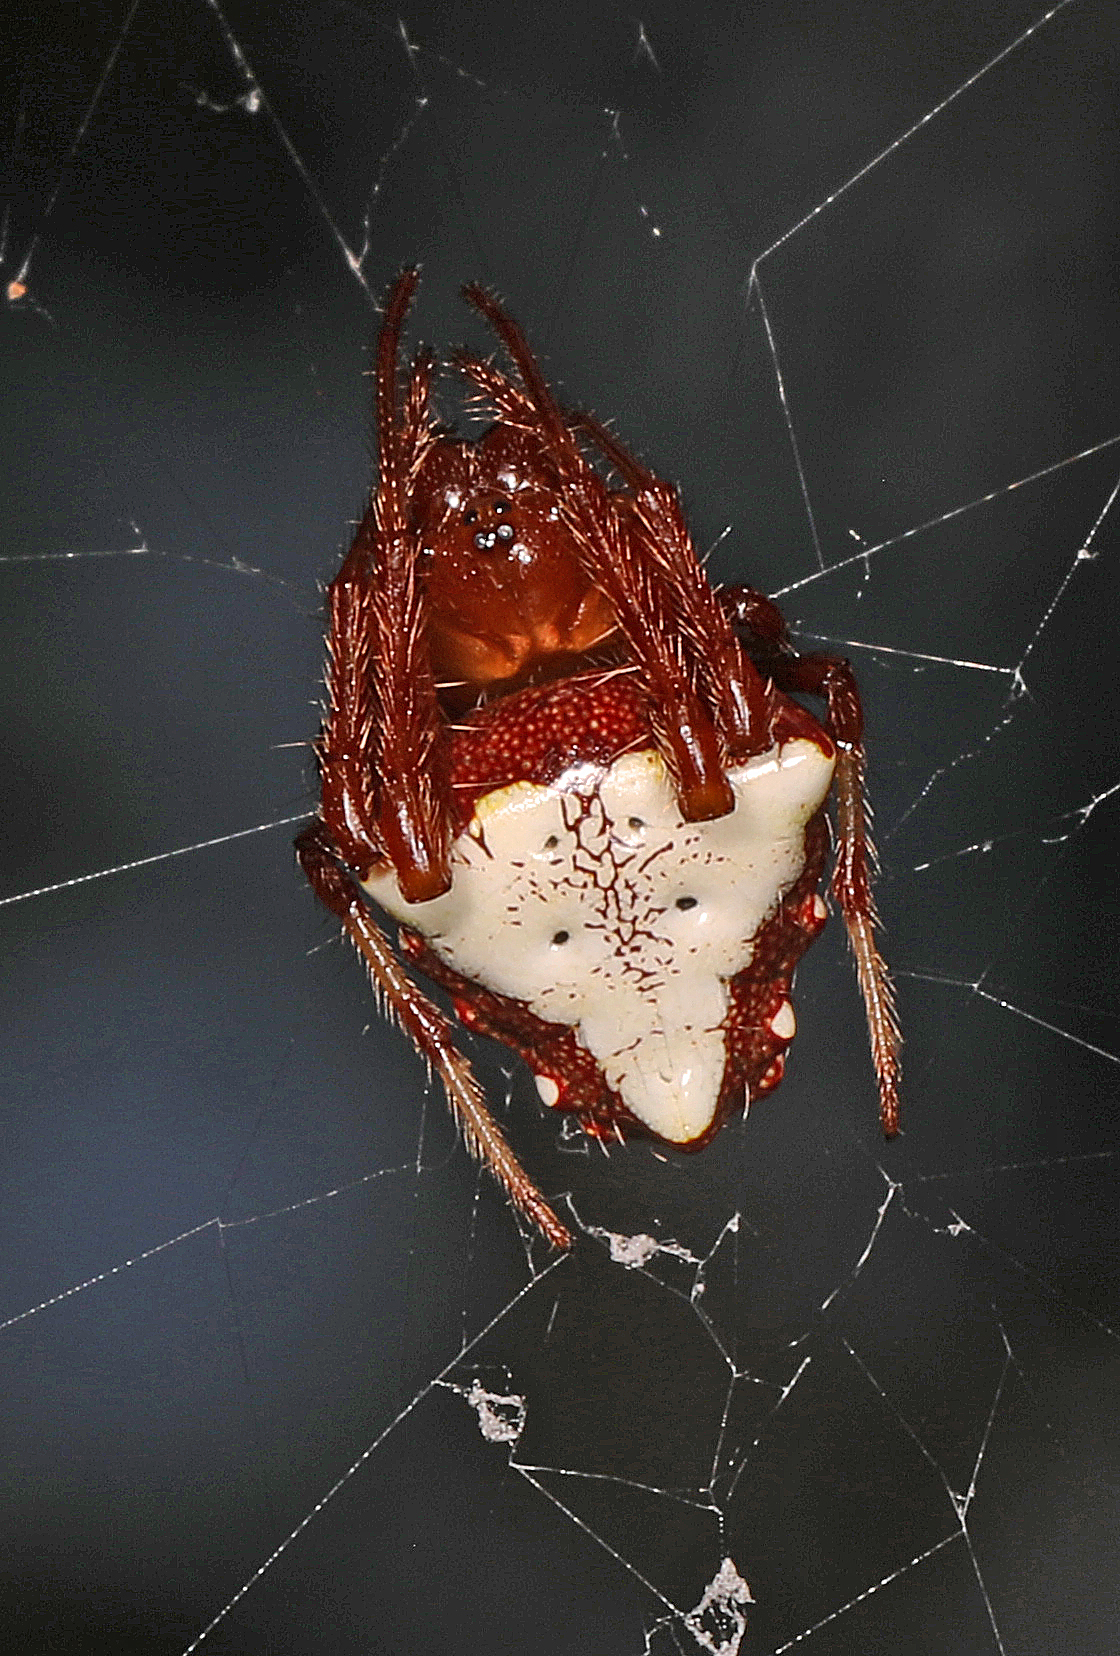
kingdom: Animalia
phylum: Arthropoda
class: Arachnida
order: Araneae
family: Araneidae
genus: Verrucosa
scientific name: Verrucosa arenata
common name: Orb weavers
